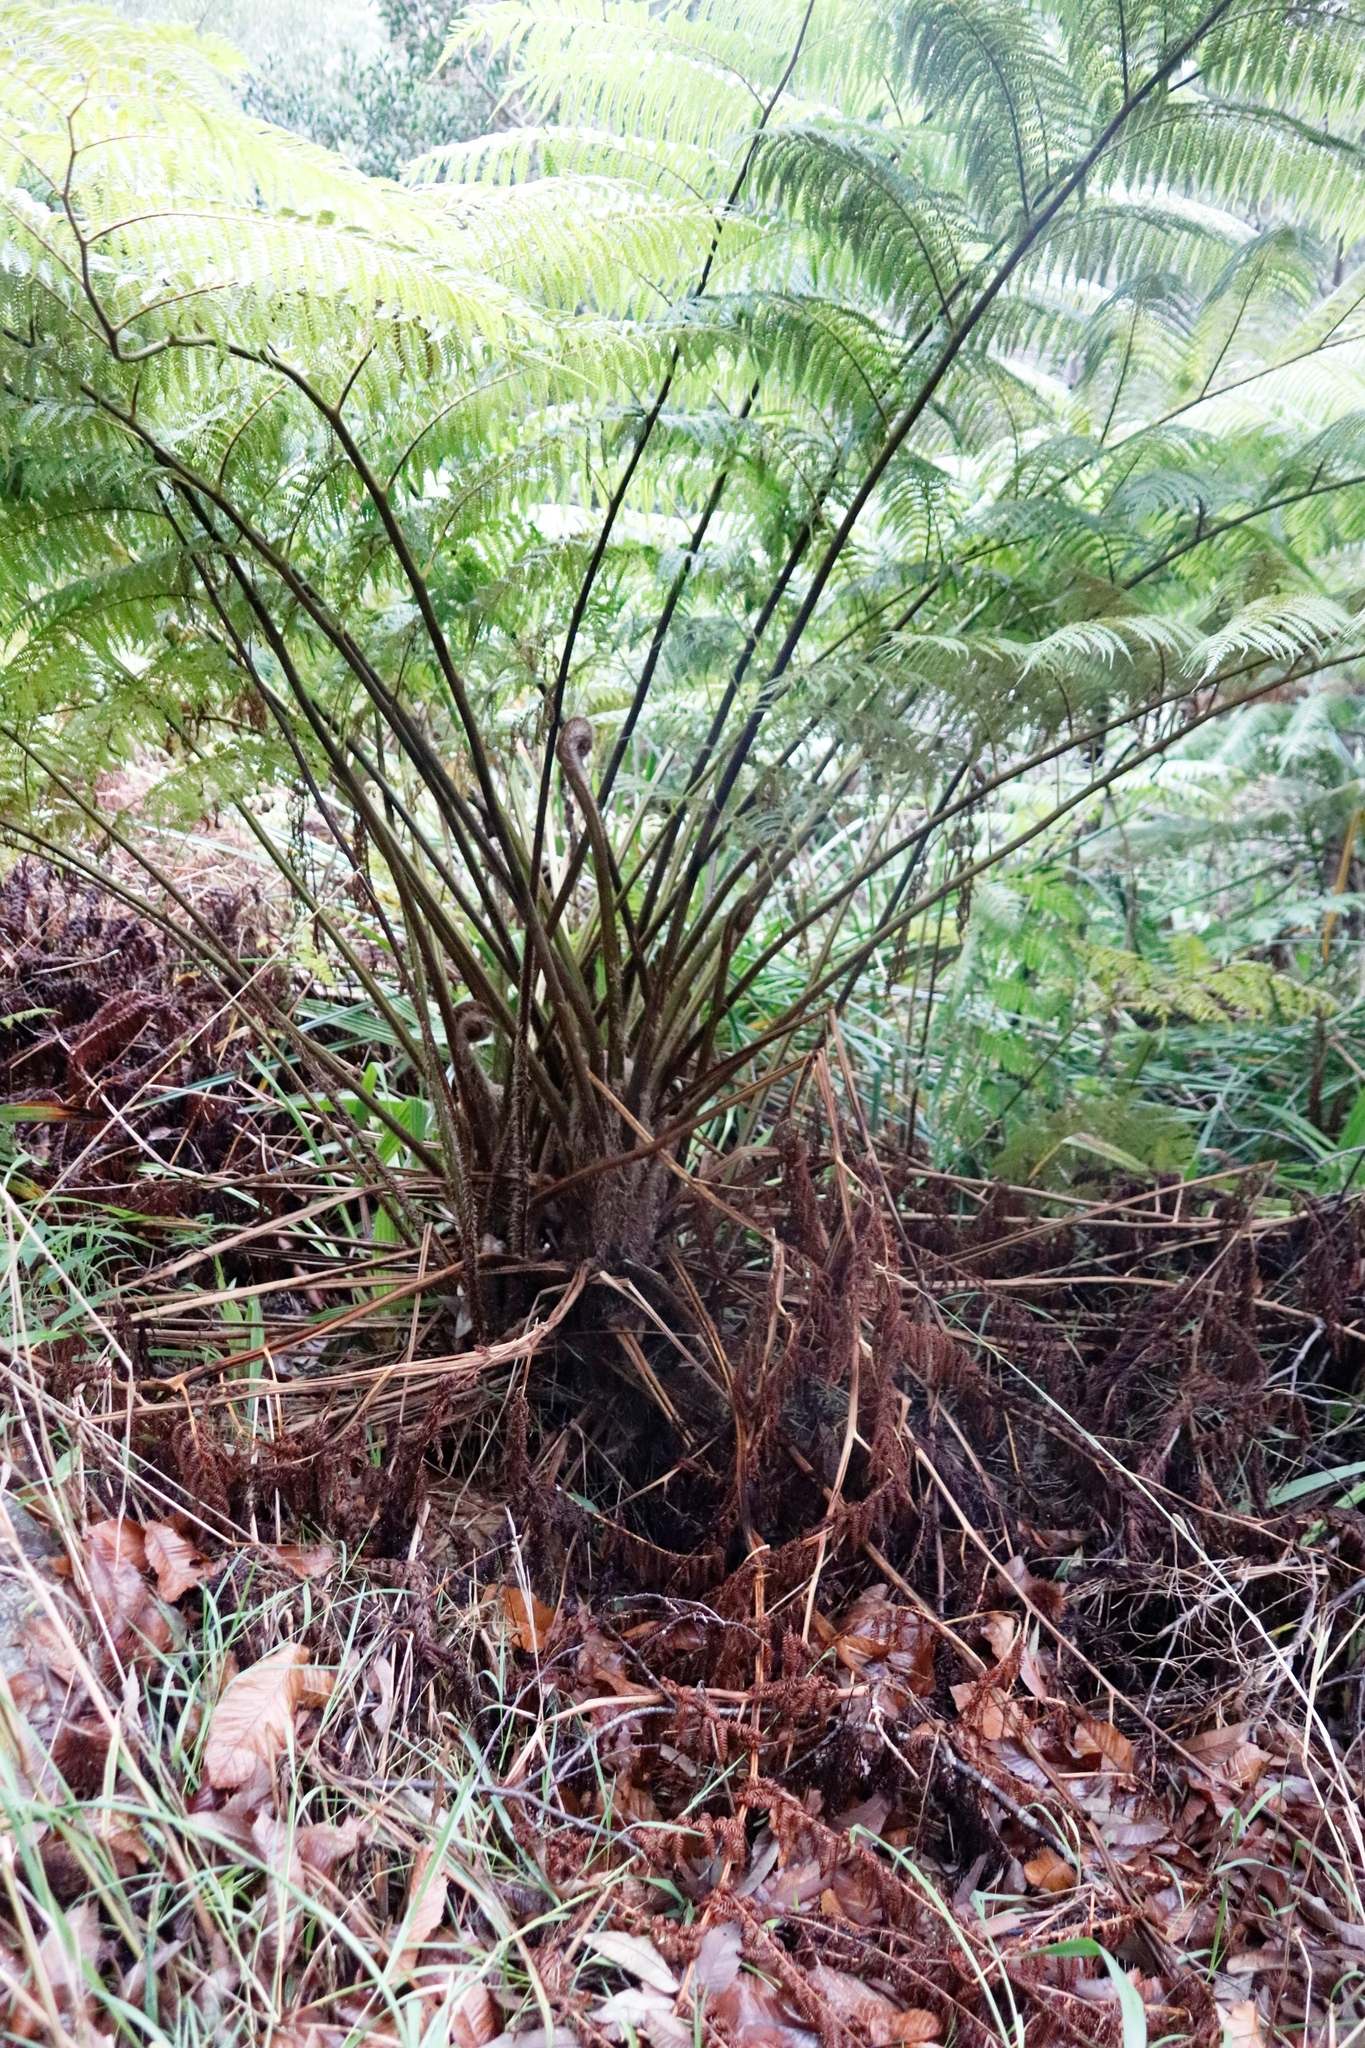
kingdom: Plantae
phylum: Tracheophyta
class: Polypodiopsida
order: Cyatheales
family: Cyatheaceae
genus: Sphaeropteris
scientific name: Sphaeropteris cooperi
